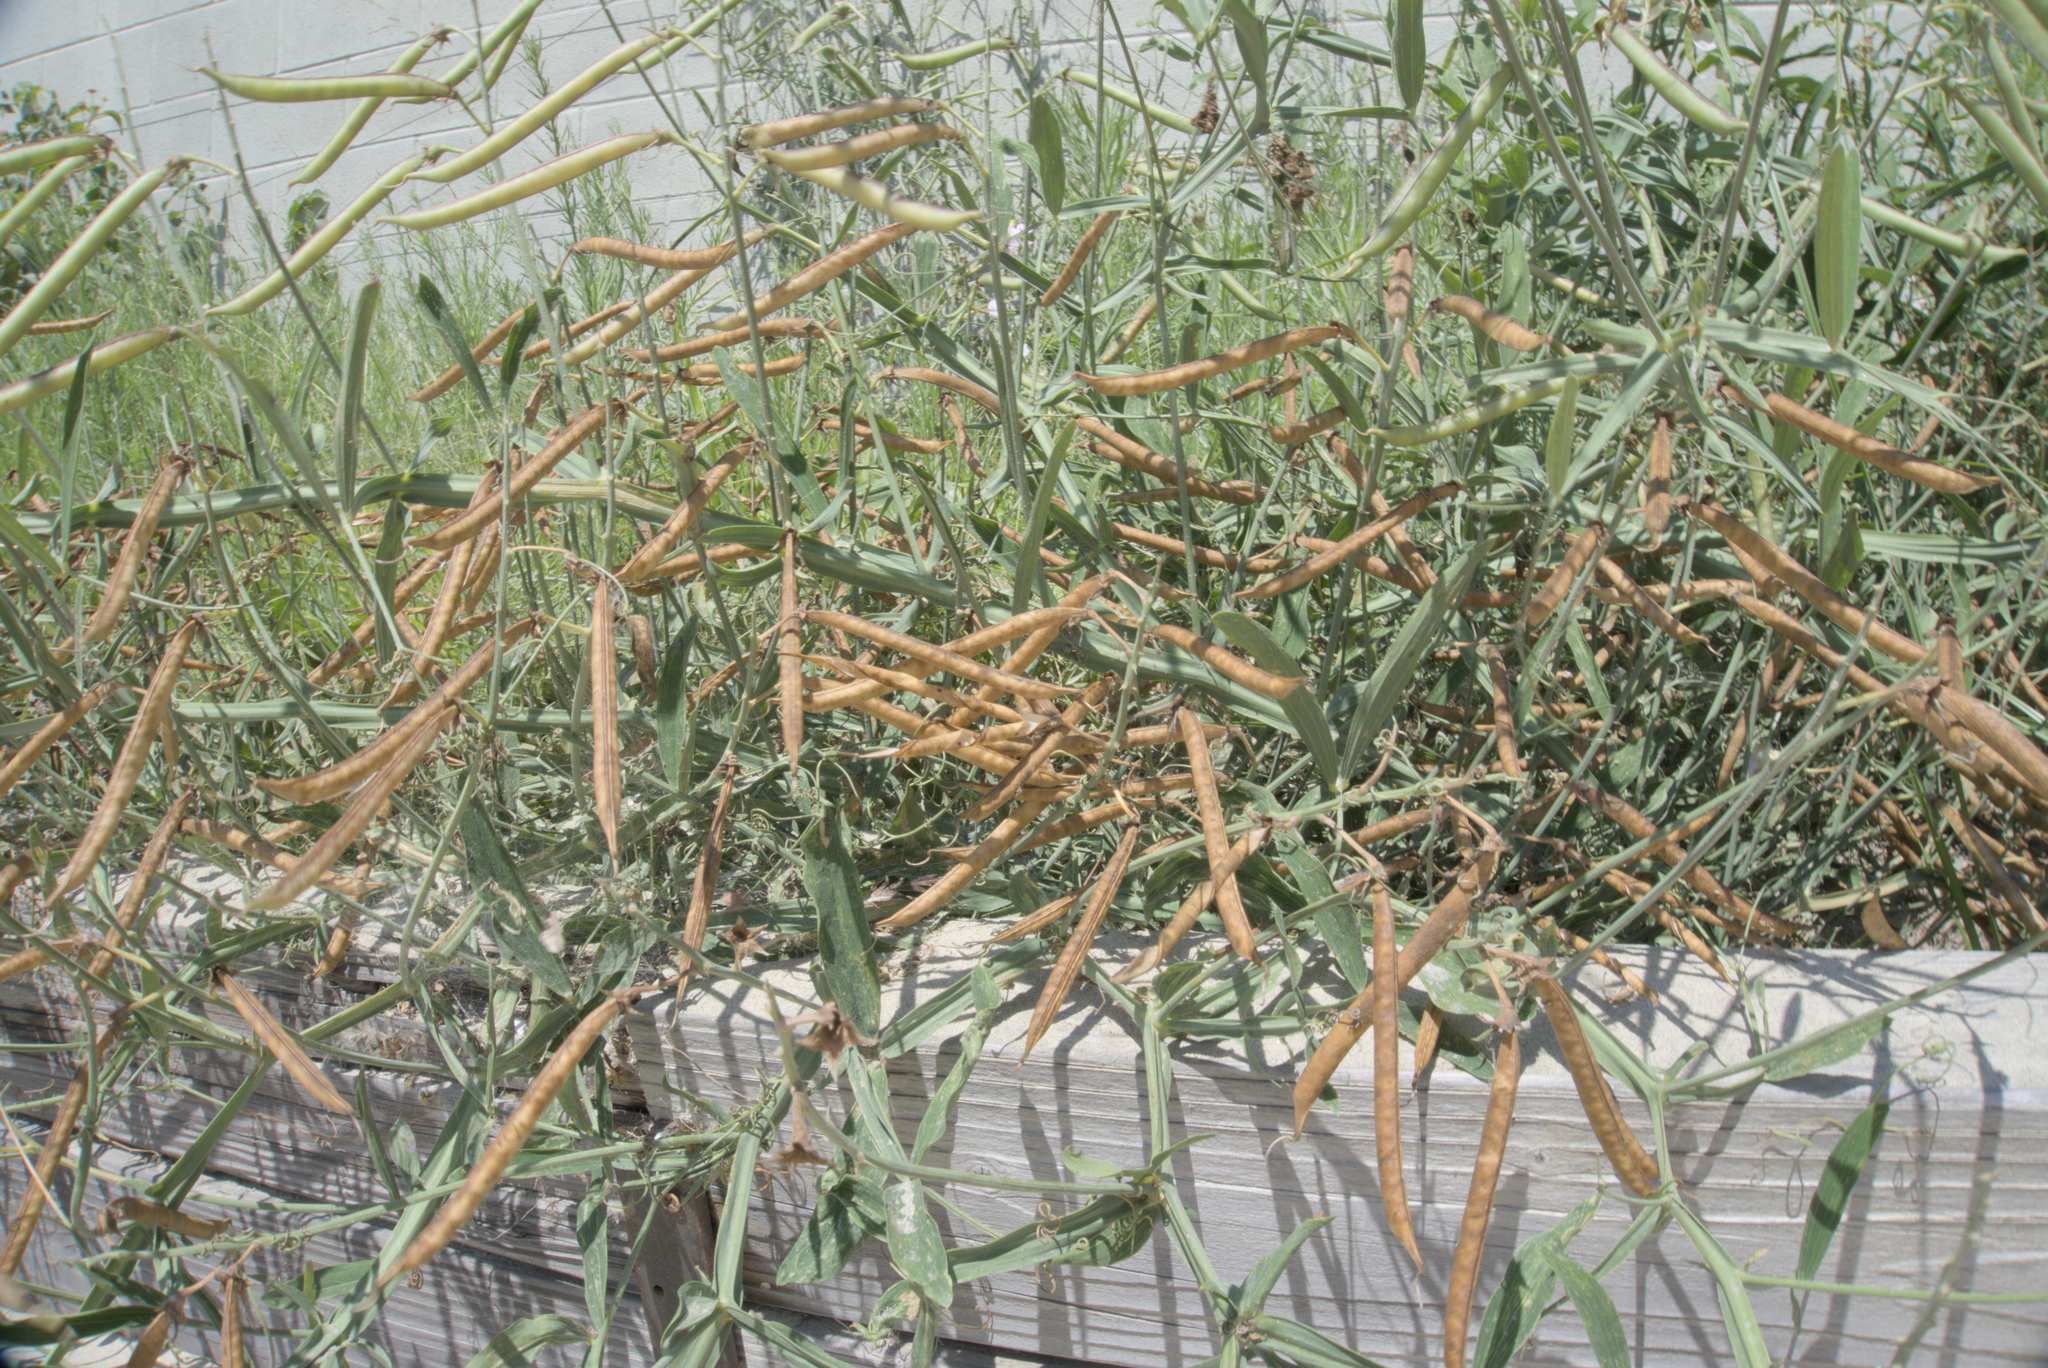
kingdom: Plantae
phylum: Tracheophyta
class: Magnoliopsida
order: Fabales
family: Fabaceae
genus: Lathyrus
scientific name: Lathyrus latifolius
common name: Perennial pea
